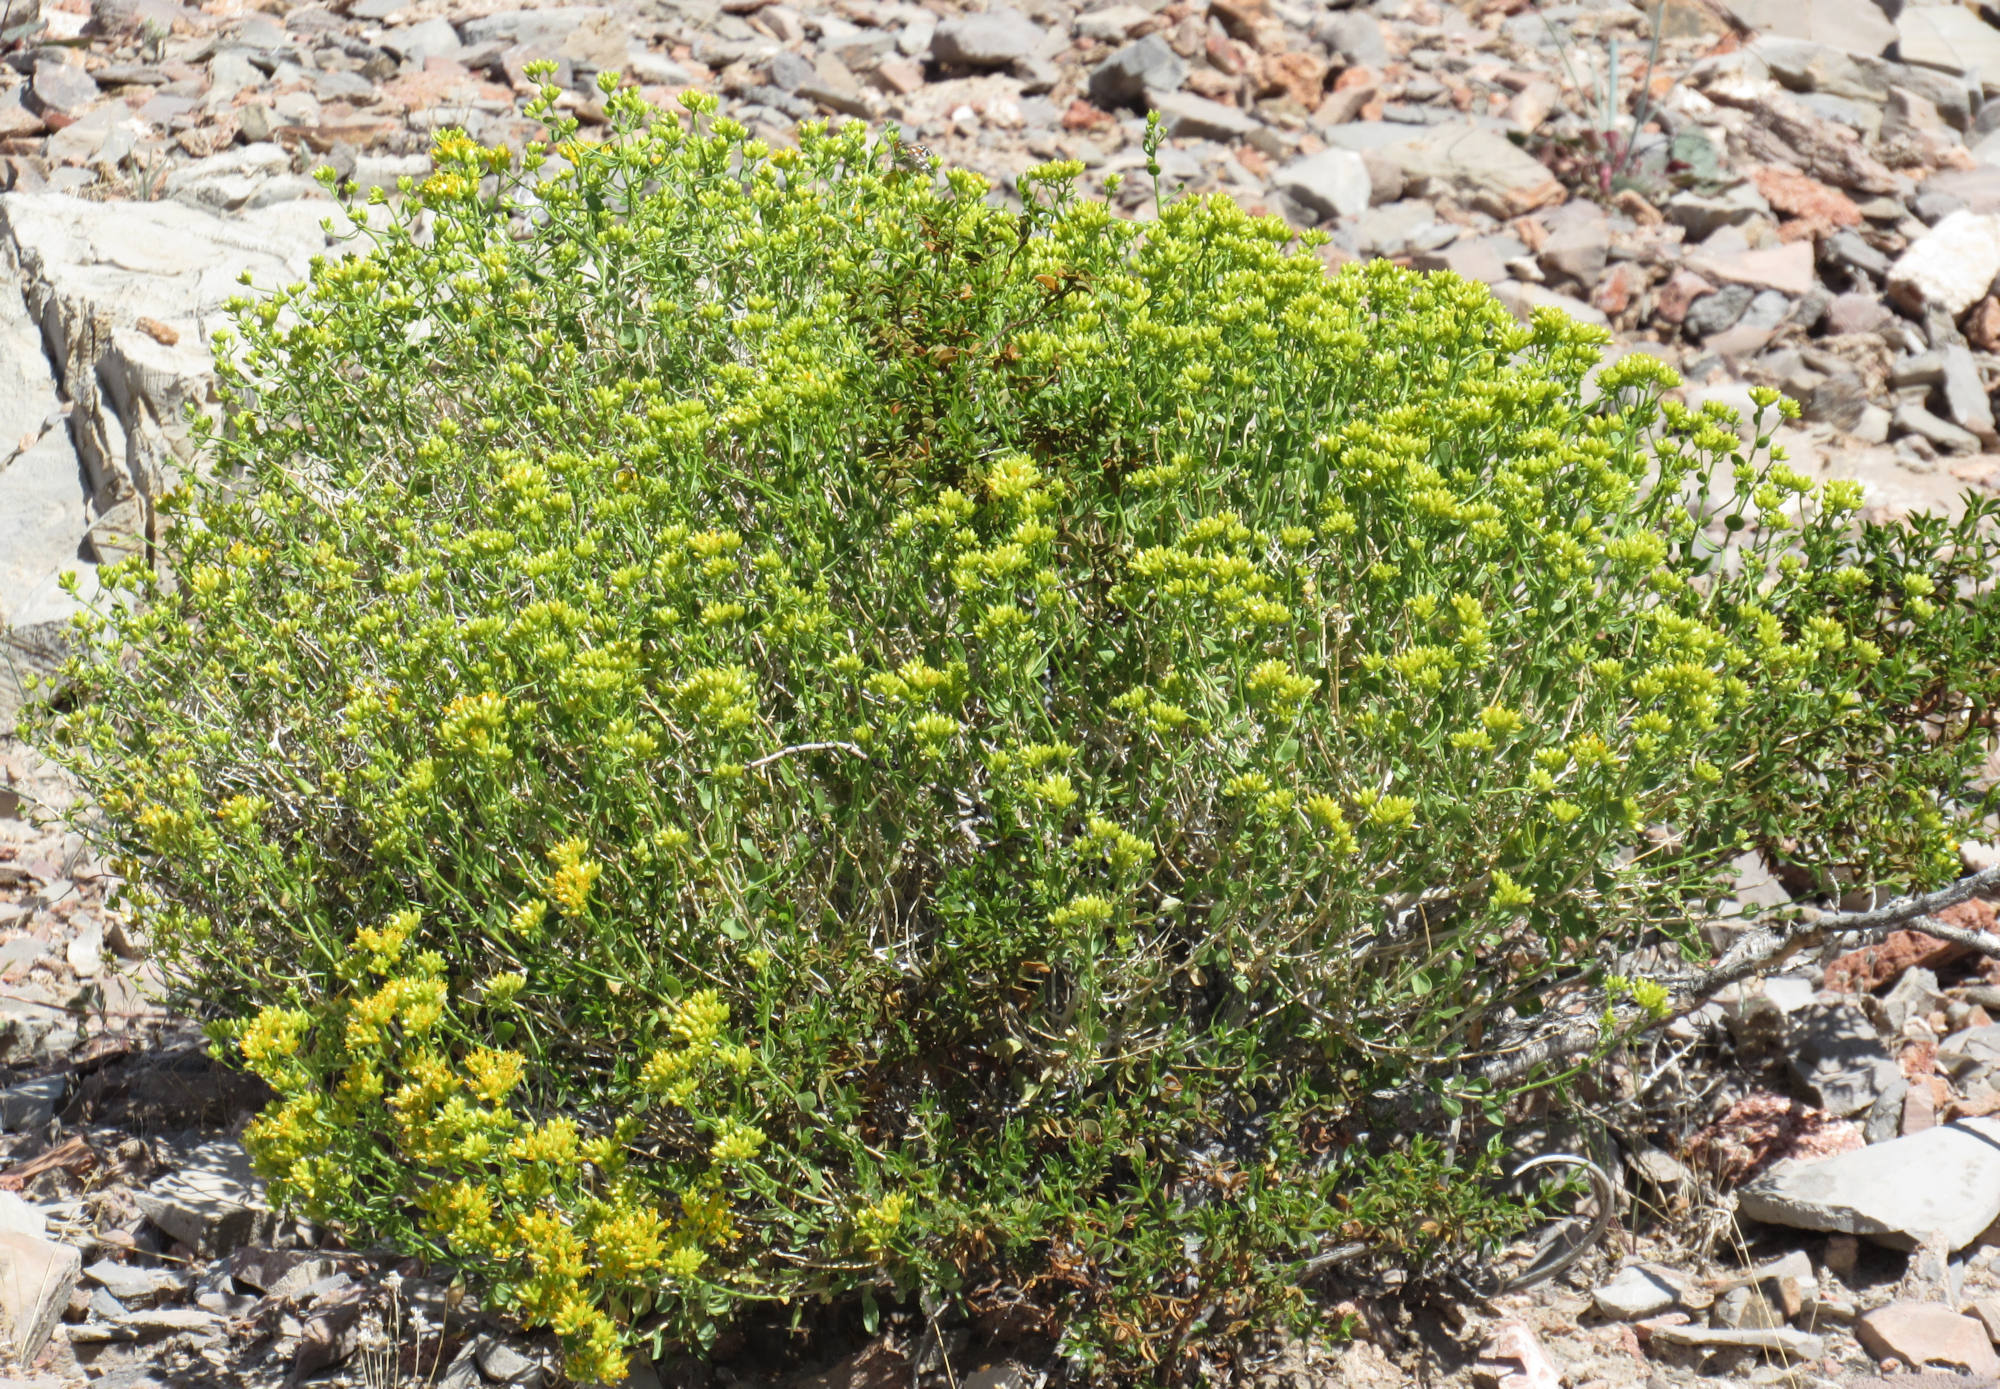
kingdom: Plantae
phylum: Tracheophyta
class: Magnoliopsida
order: Asterales
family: Asteraceae
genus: Gutierrezia
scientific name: Gutierrezia microcephala
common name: Thread snakeweed
